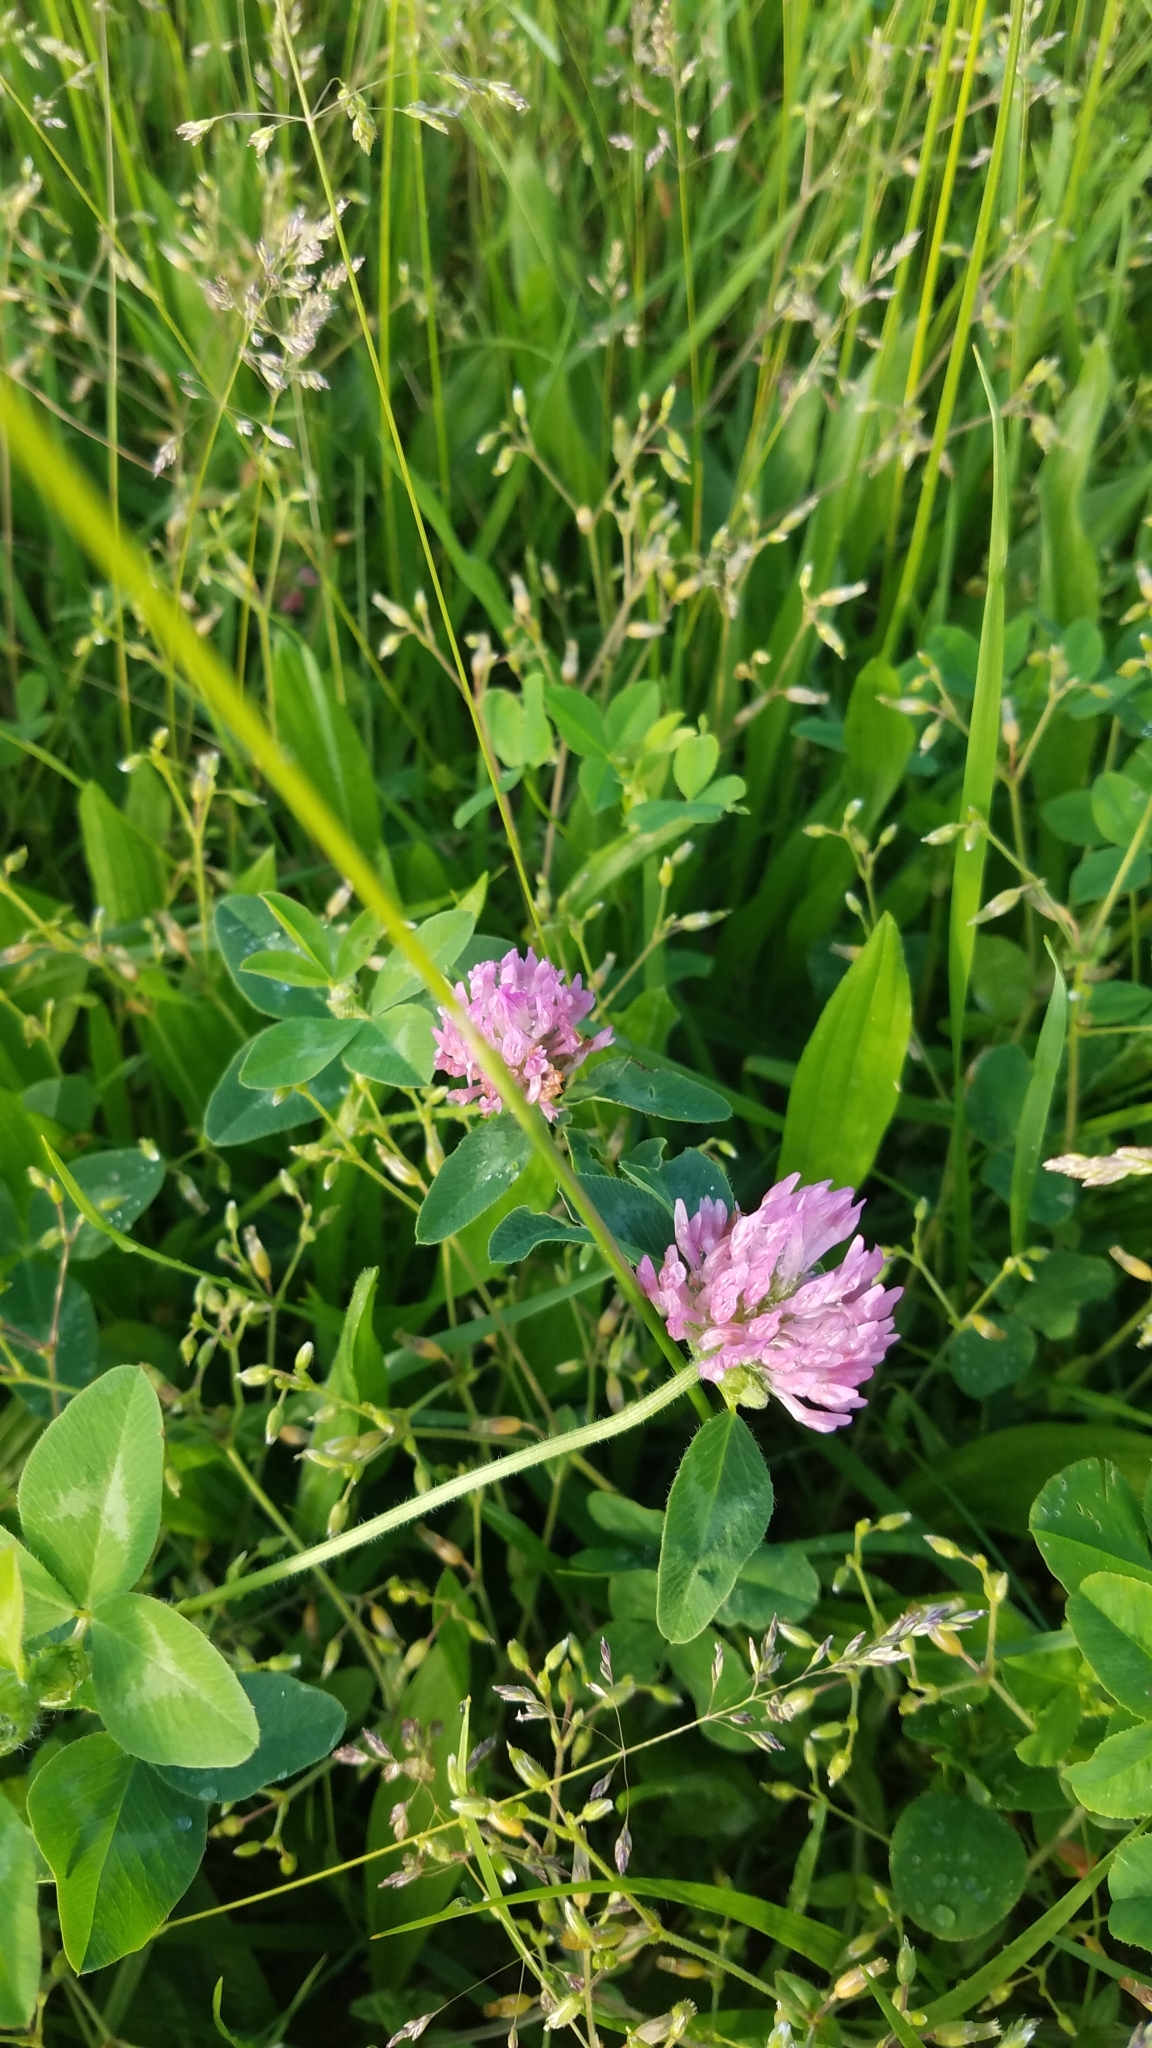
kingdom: Plantae
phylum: Tracheophyta
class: Magnoliopsida
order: Fabales
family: Fabaceae
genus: Trifolium
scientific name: Trifolium pratense
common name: Red clover
